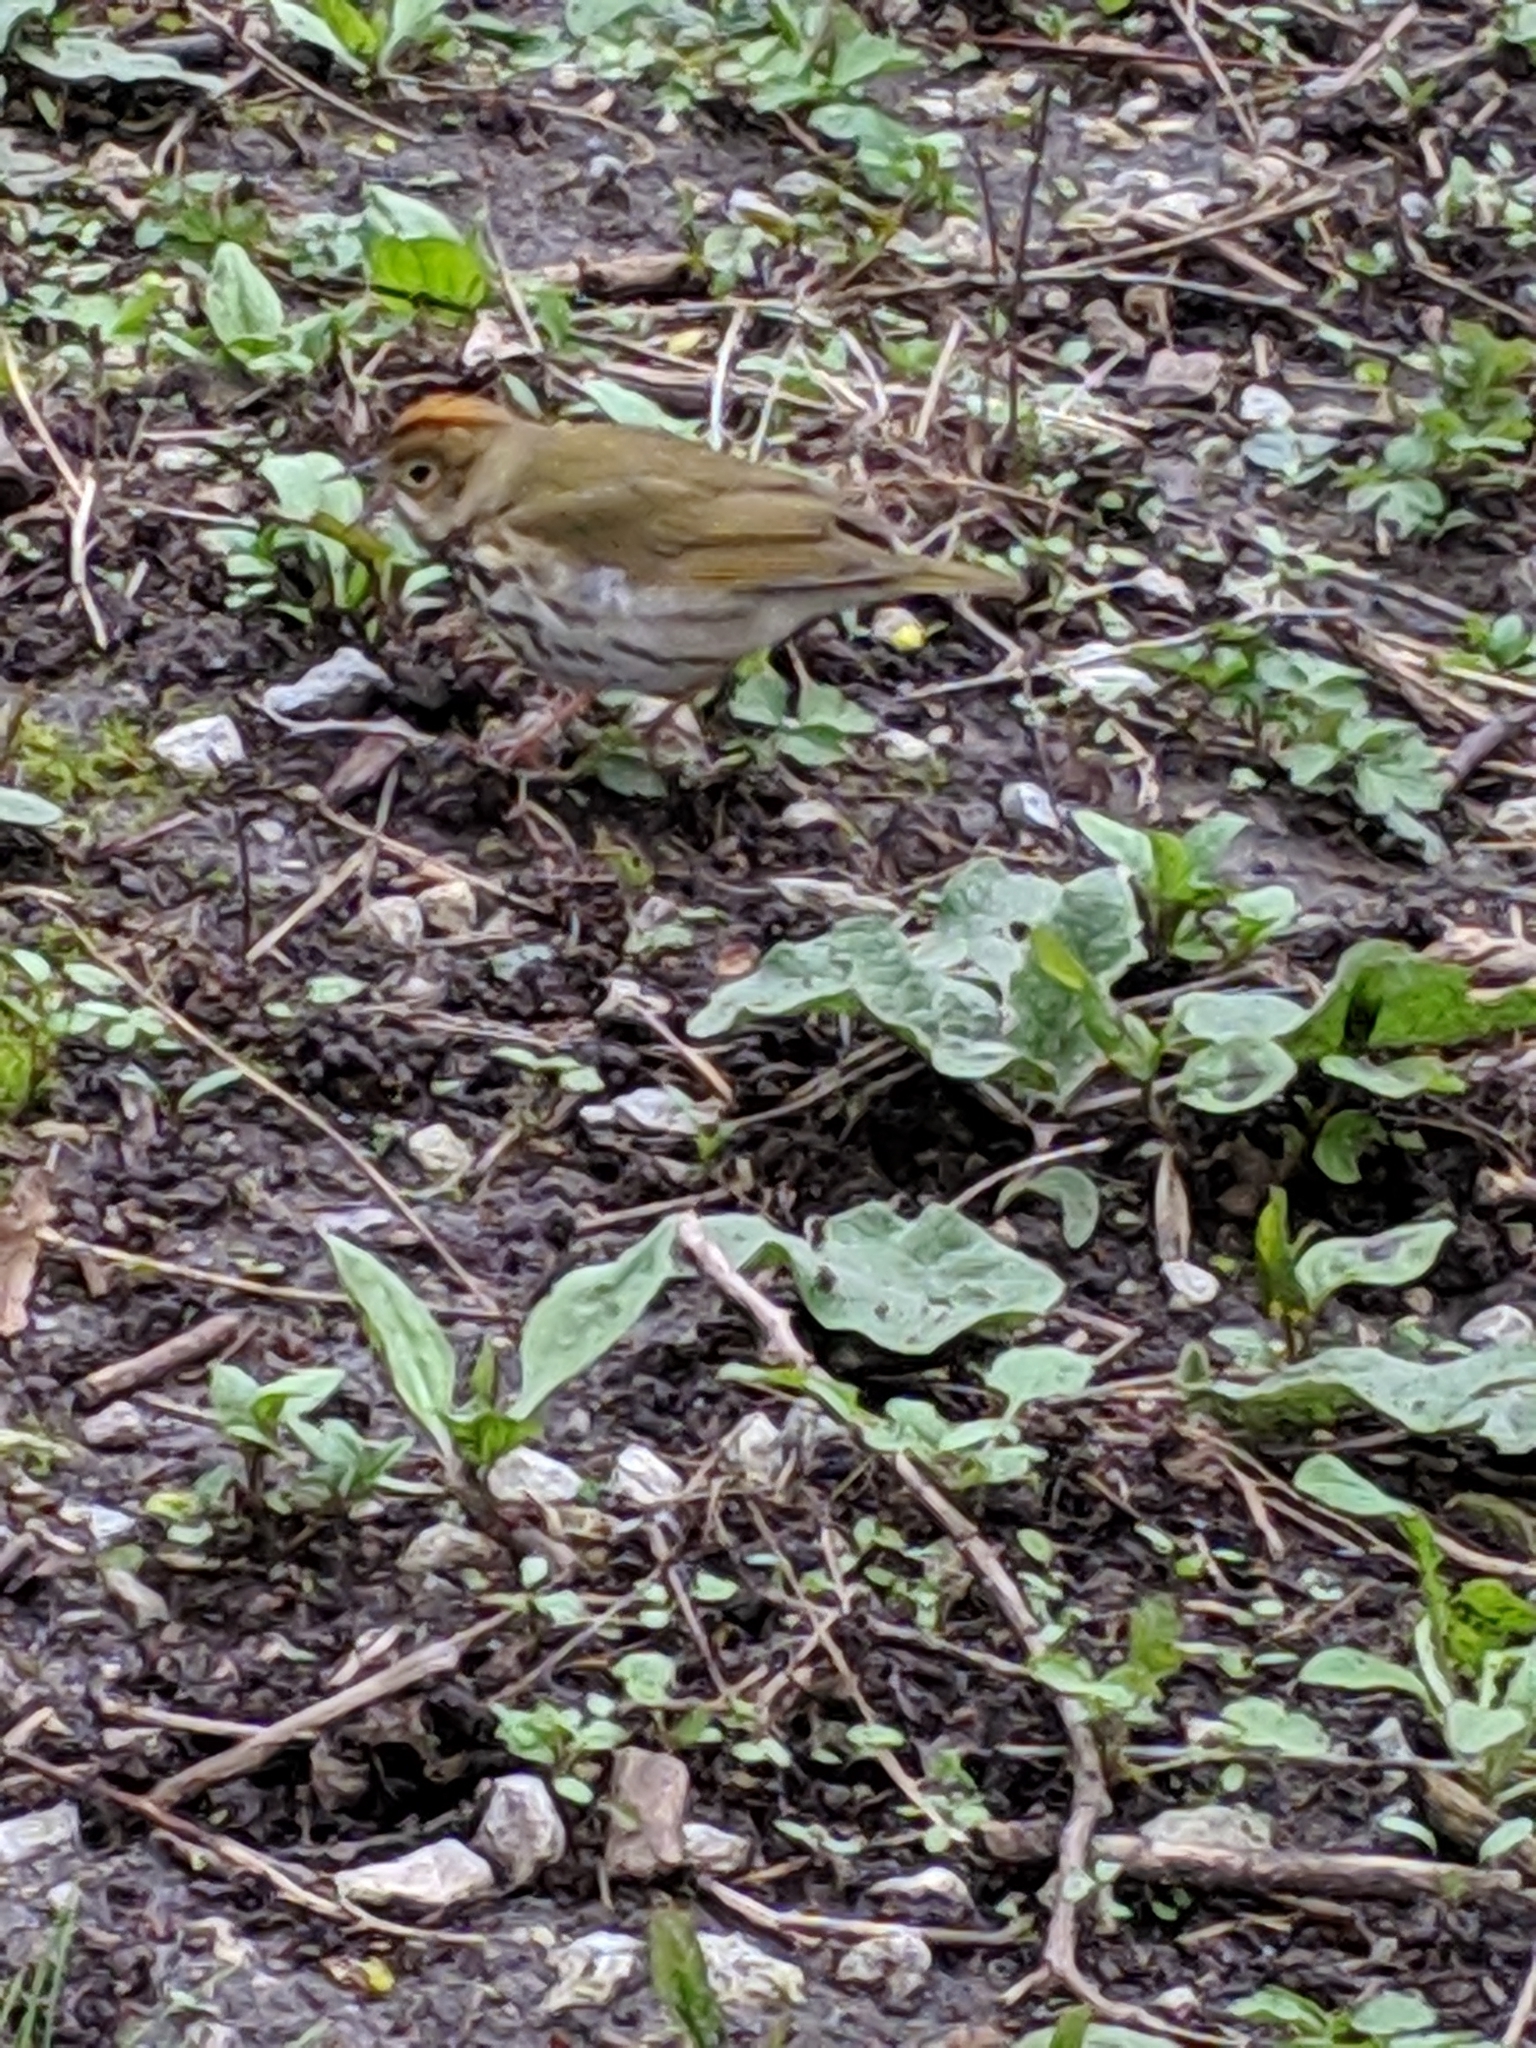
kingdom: Animalia
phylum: Chordata
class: Aves
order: Passeriformes
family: Parulidae
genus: Seiurus
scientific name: Seiurus aurocapilla
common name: Ovenbird
